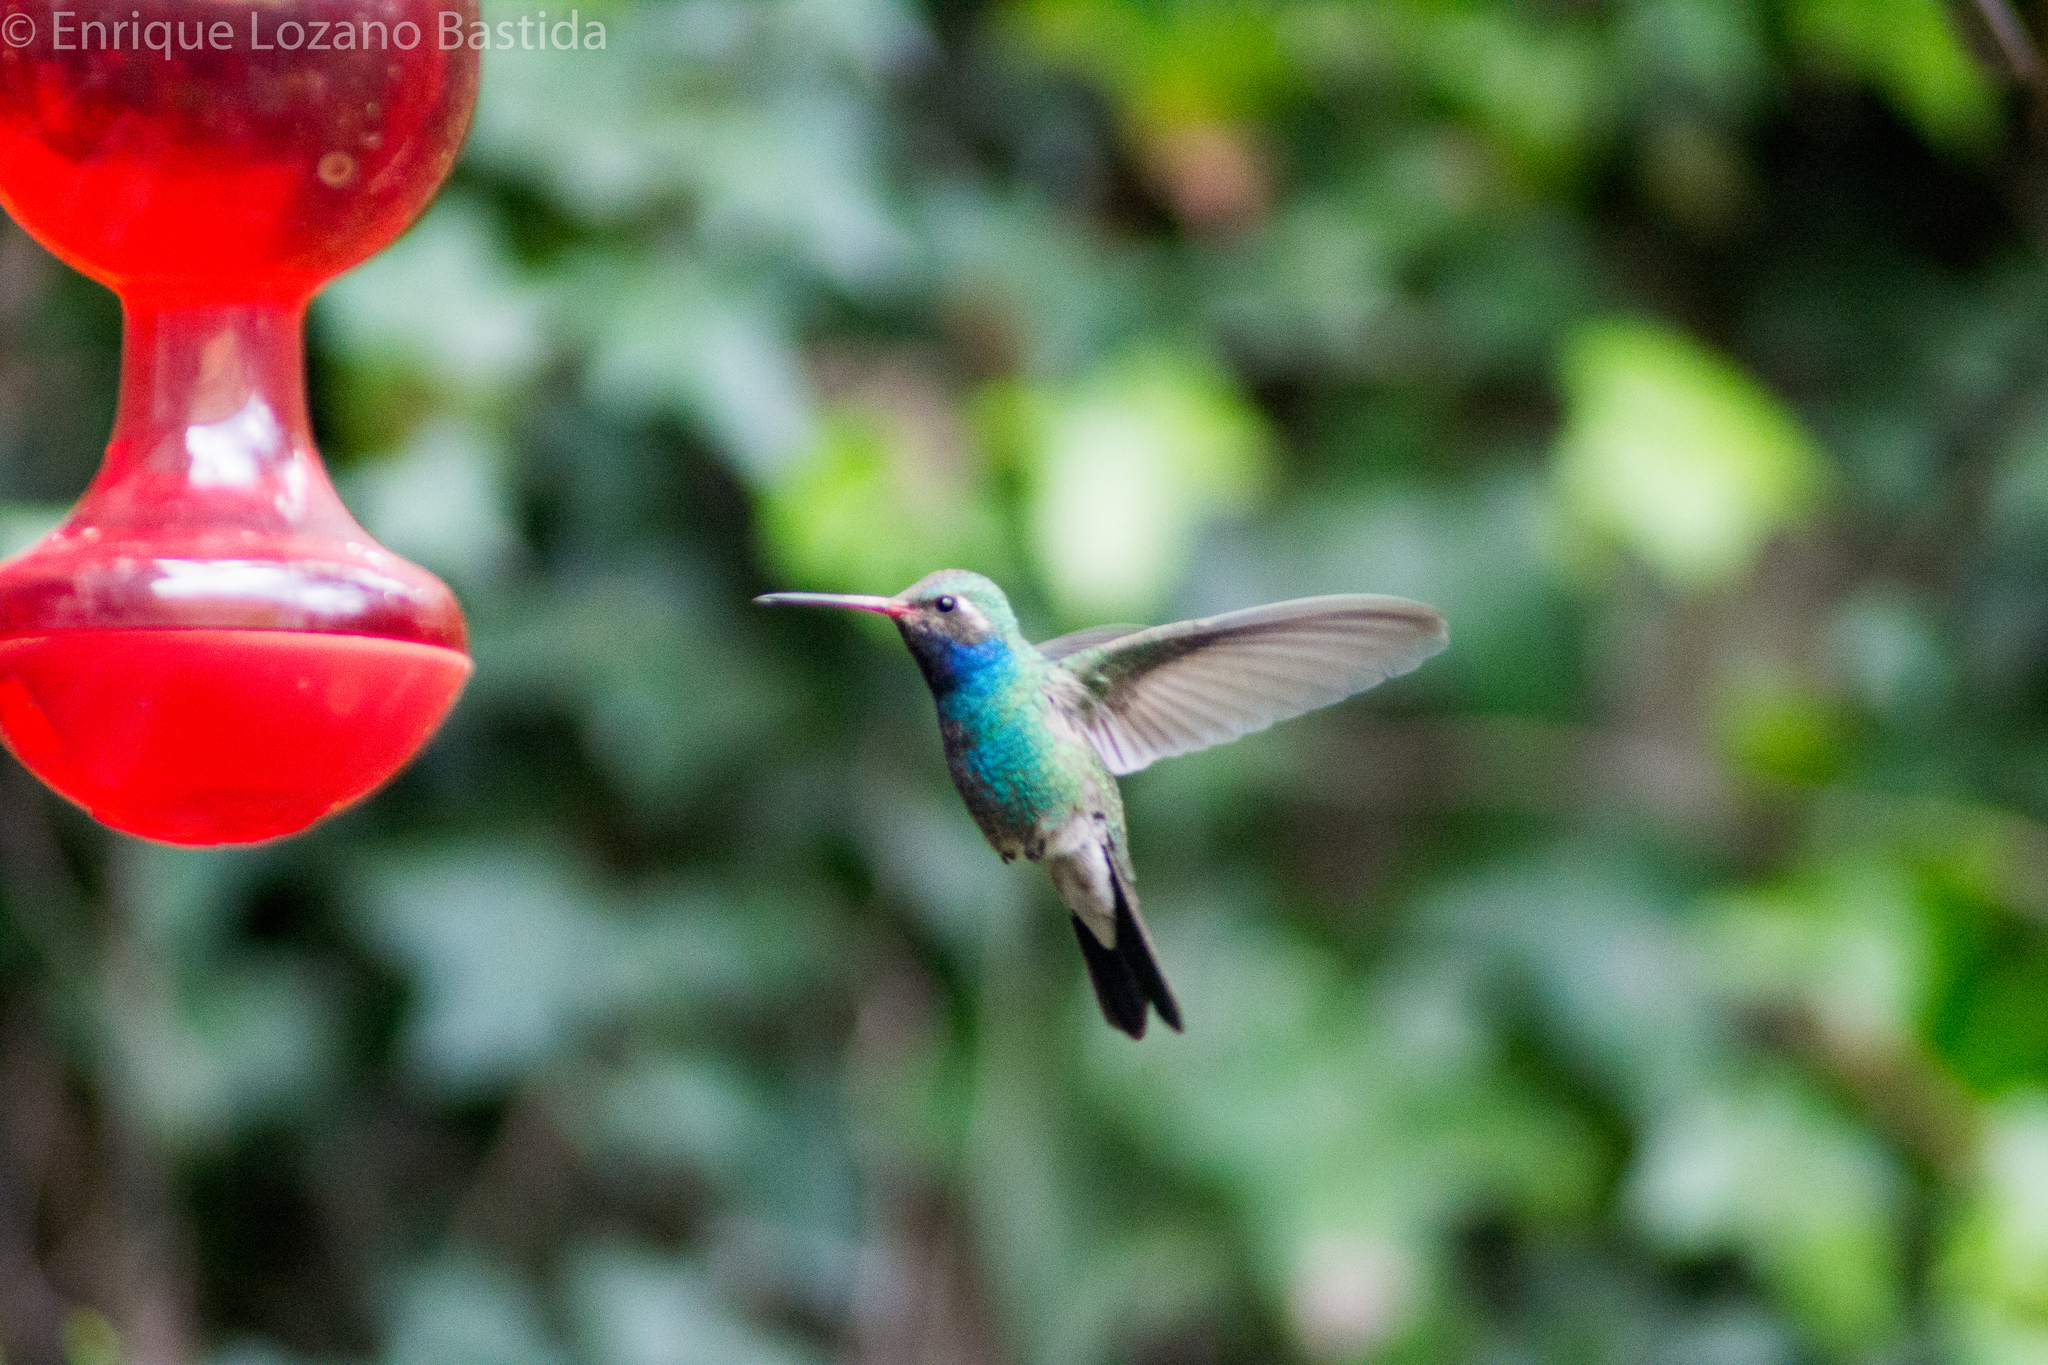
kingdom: Animalia
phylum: Chordata
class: Aves
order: Apodiformes
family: Trochilidae
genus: Cynanthus
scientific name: Cynanthus latirostris
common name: Broad-billed hummingbird
